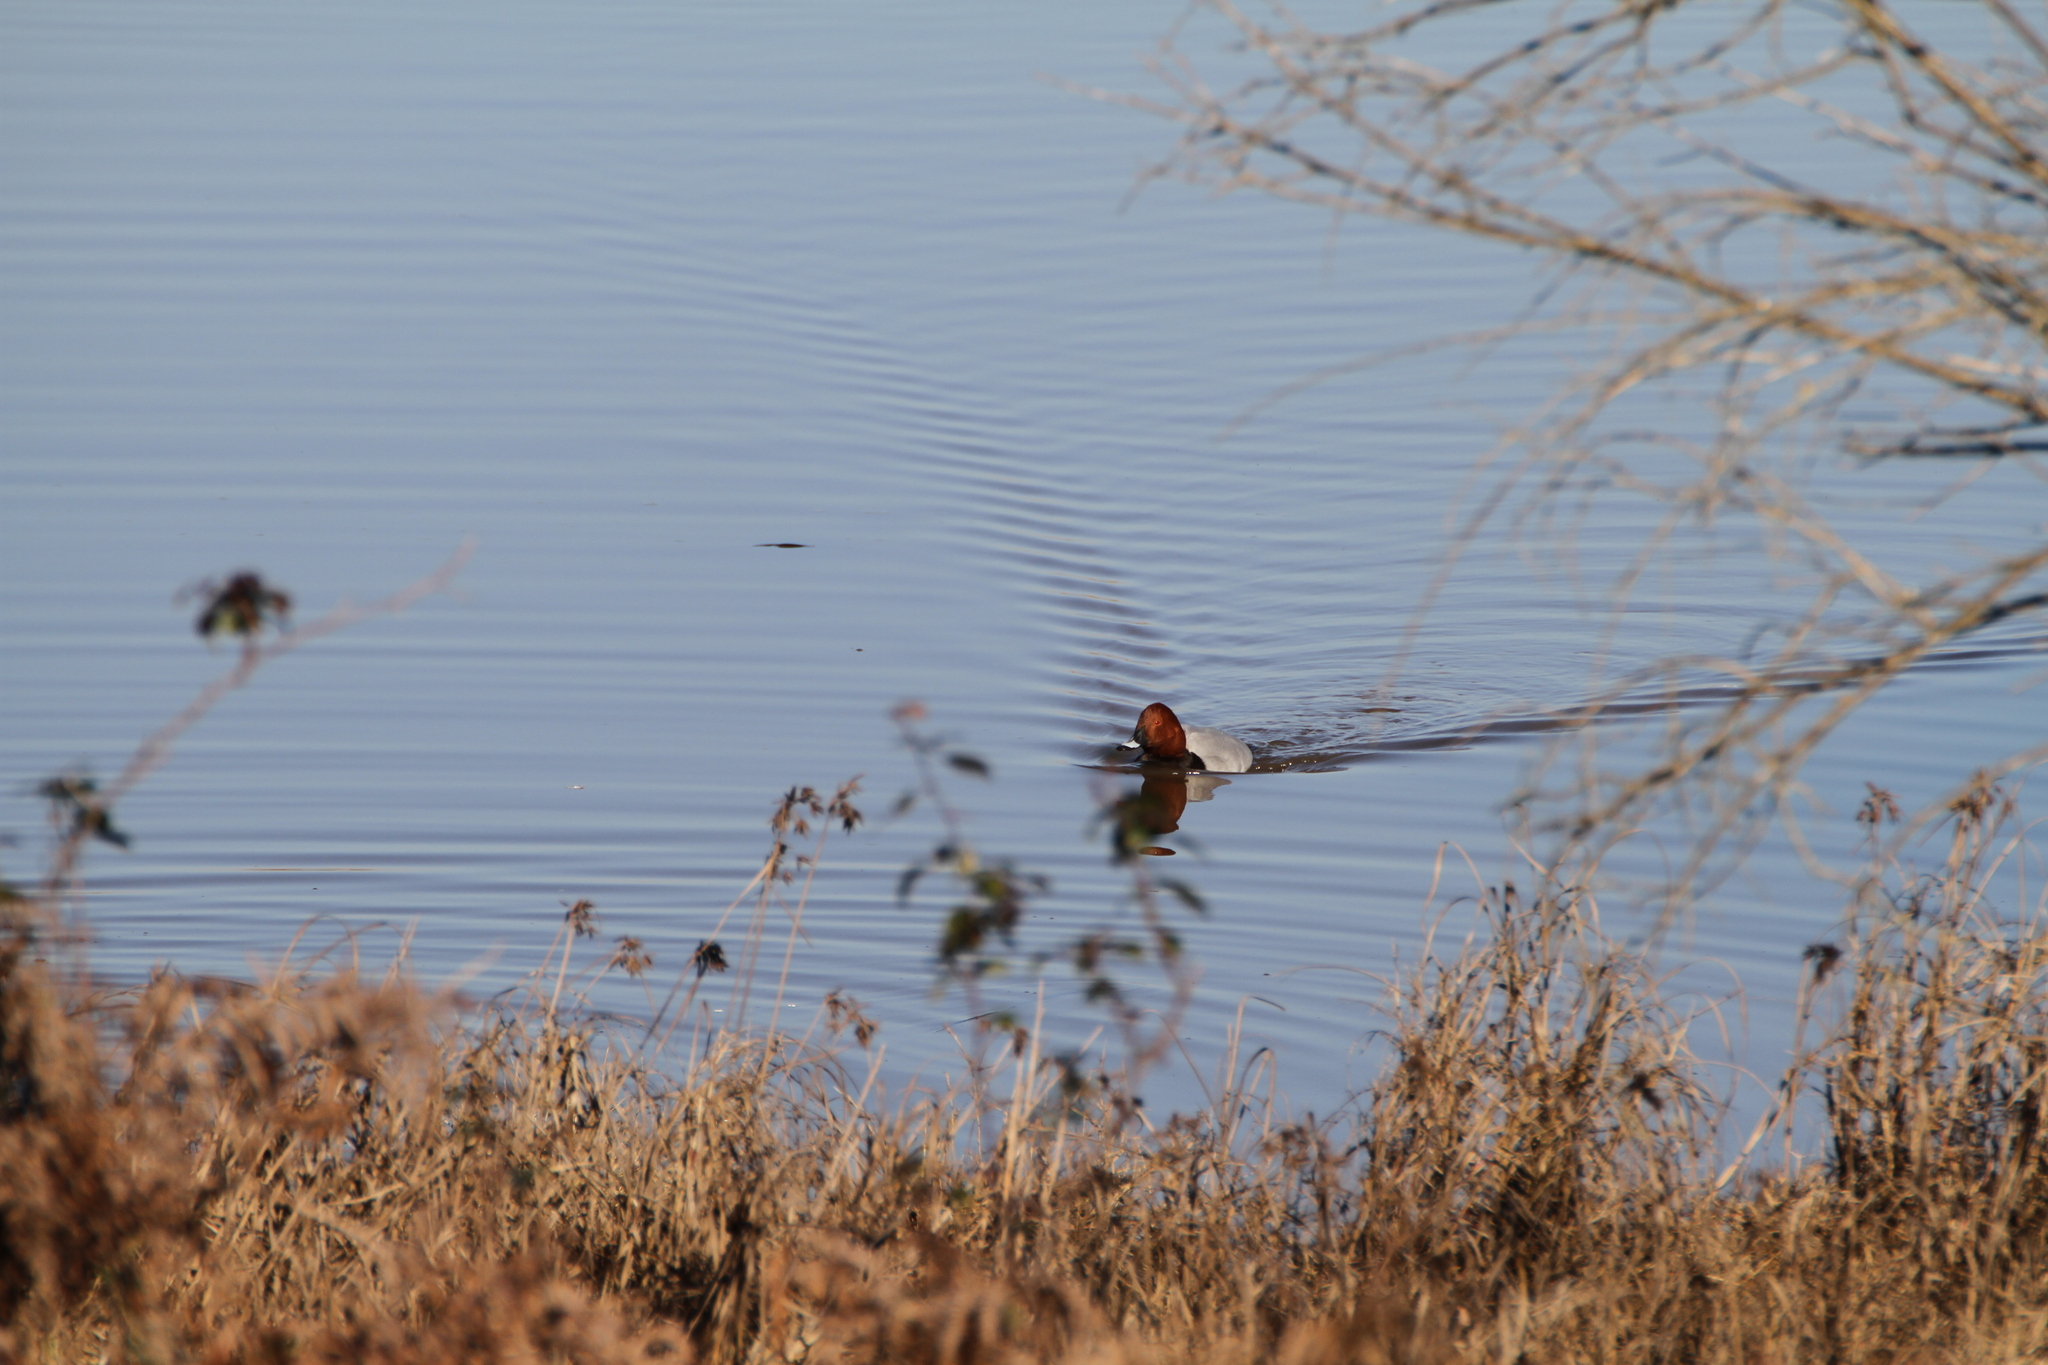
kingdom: Animalia
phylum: Chordata
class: Aves
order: Anseriformes
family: Anatidae
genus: Aythya
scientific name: Aythya ferina
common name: Common pochard
